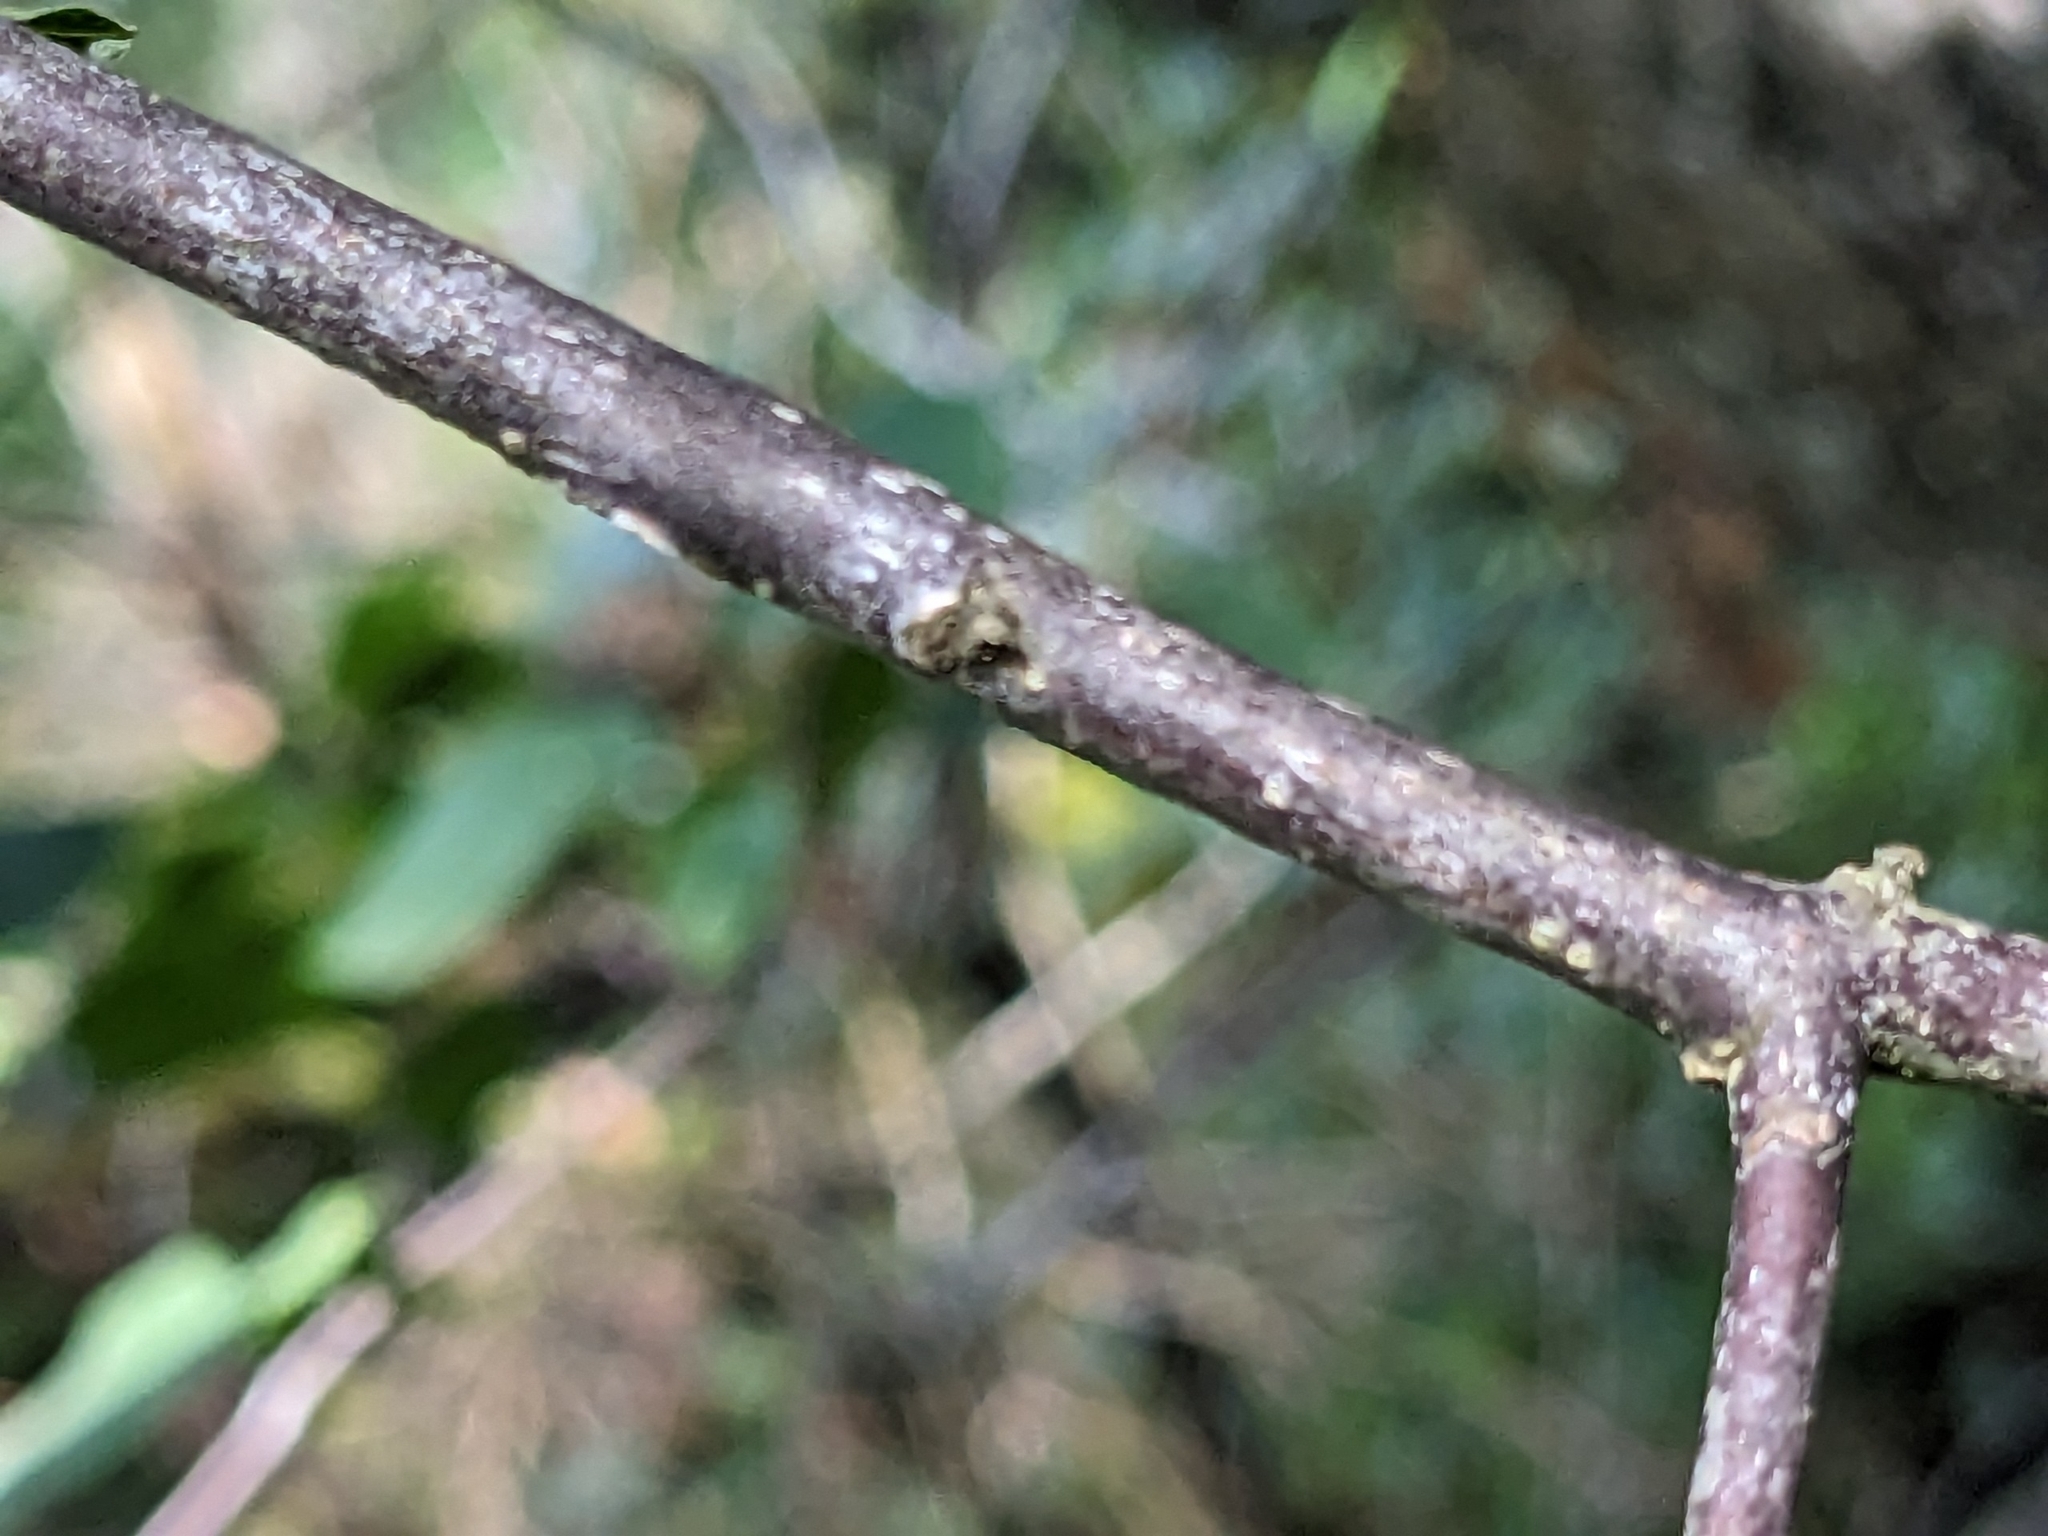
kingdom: Plantae
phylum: Tracheophyta
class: Magnoliopsida
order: Rosales
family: Rhamnaceae
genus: Frangula
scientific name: Frangula alnus
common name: Alder buckthorn
